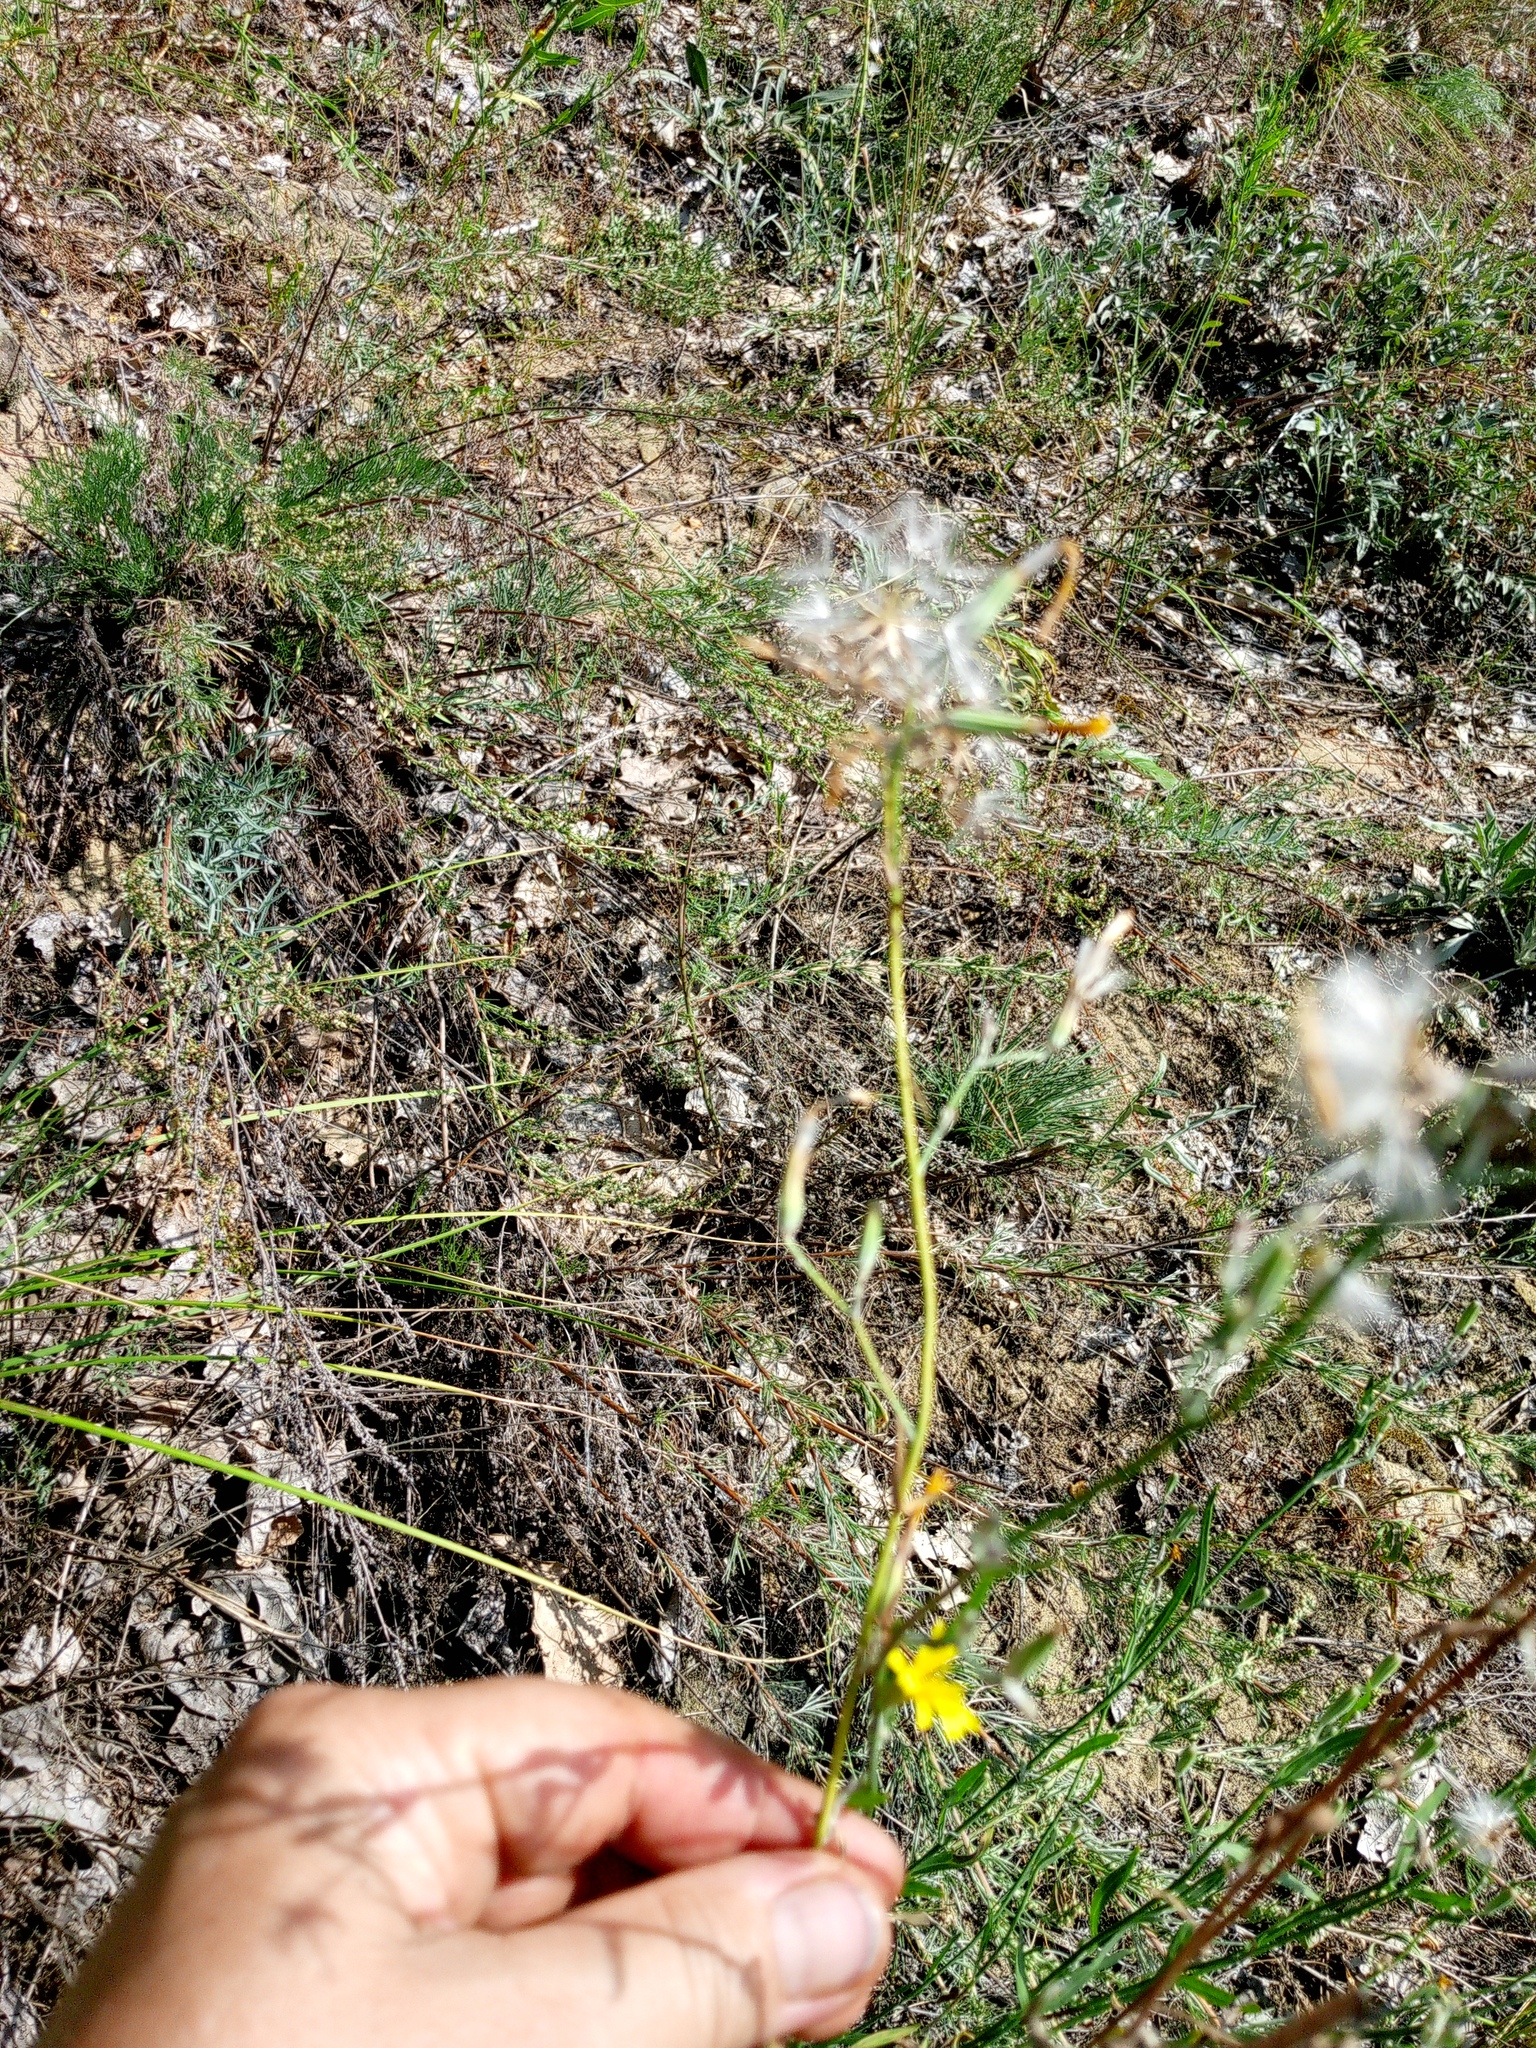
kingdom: Plantae
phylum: Tracheophyta
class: Magnoliopsida
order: Asterales
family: Asteraceae
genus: Chondrilla
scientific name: Chondrilla juncea
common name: Skeleton weed
